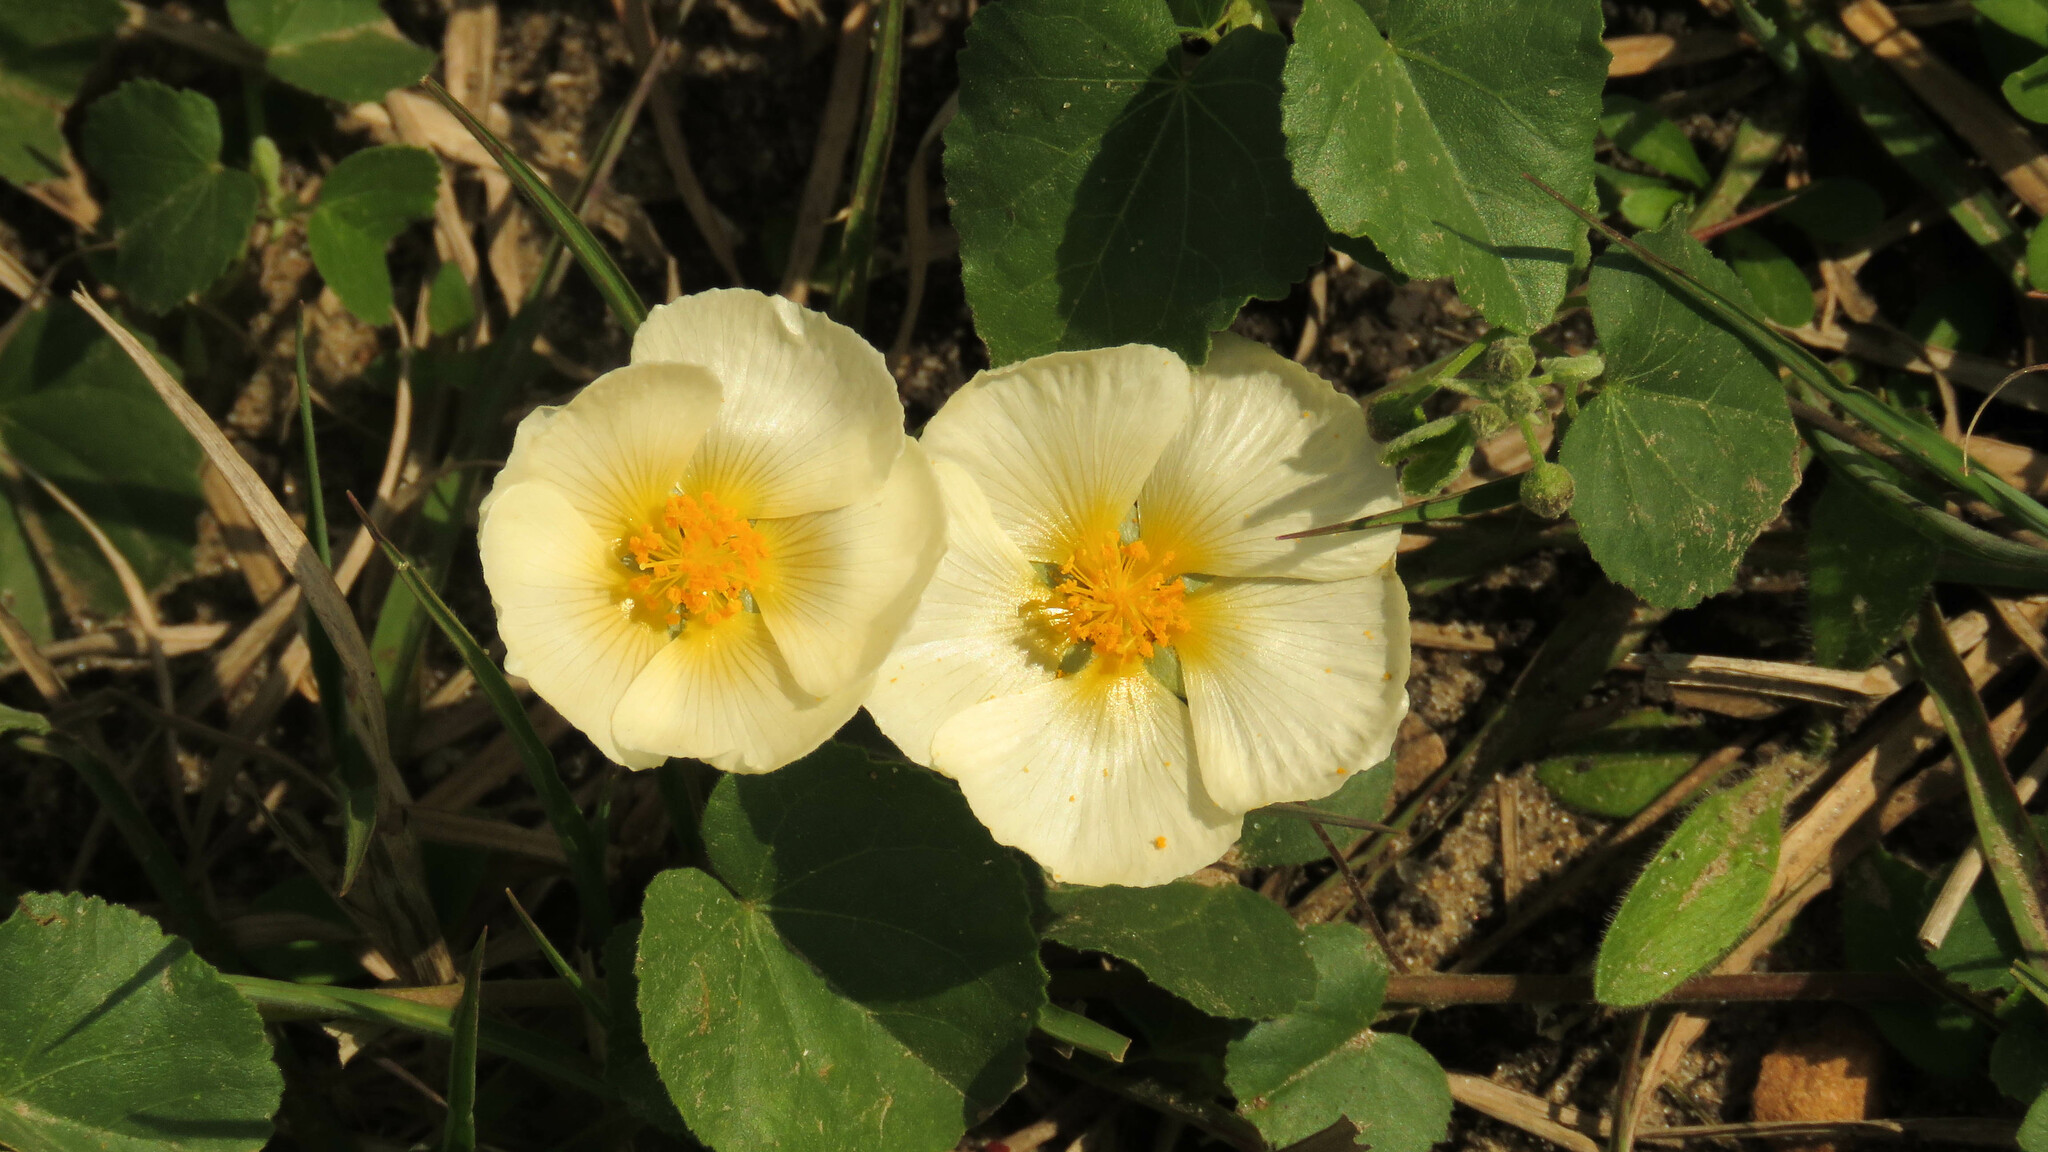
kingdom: Plantae
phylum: Tracheophyta
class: Magnoliopsida
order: Malvales
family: Malvaceae
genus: Wissadula
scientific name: Wissadula glechomifolia
